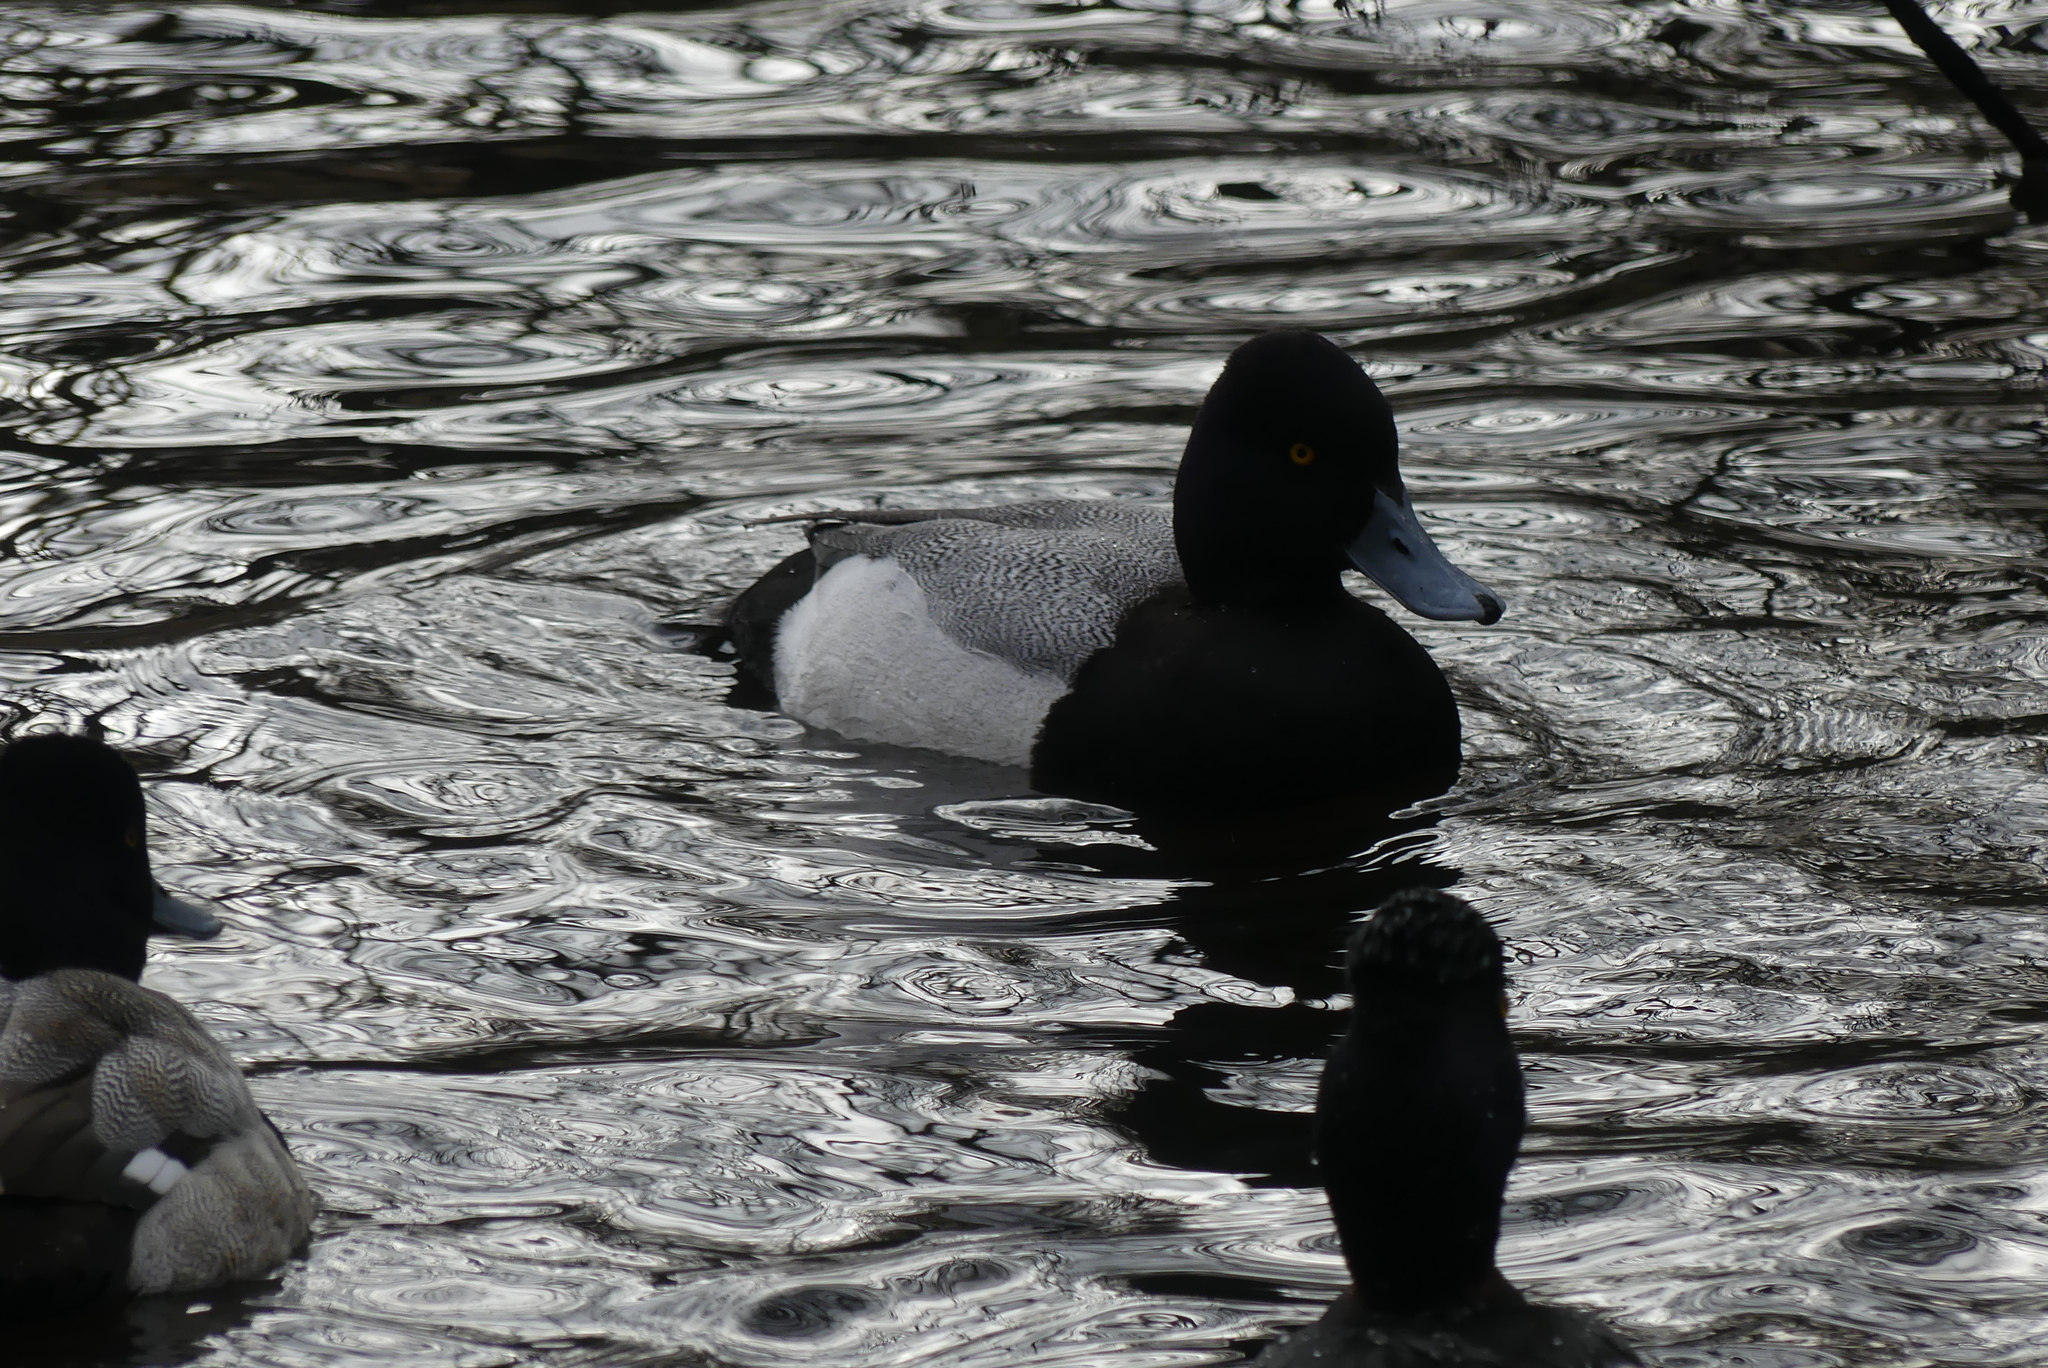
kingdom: Animalia
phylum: Chordata
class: Aves
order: Anseriformes
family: Anatidae
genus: Aythya
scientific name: Aythya affinis
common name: Lesser scaup
